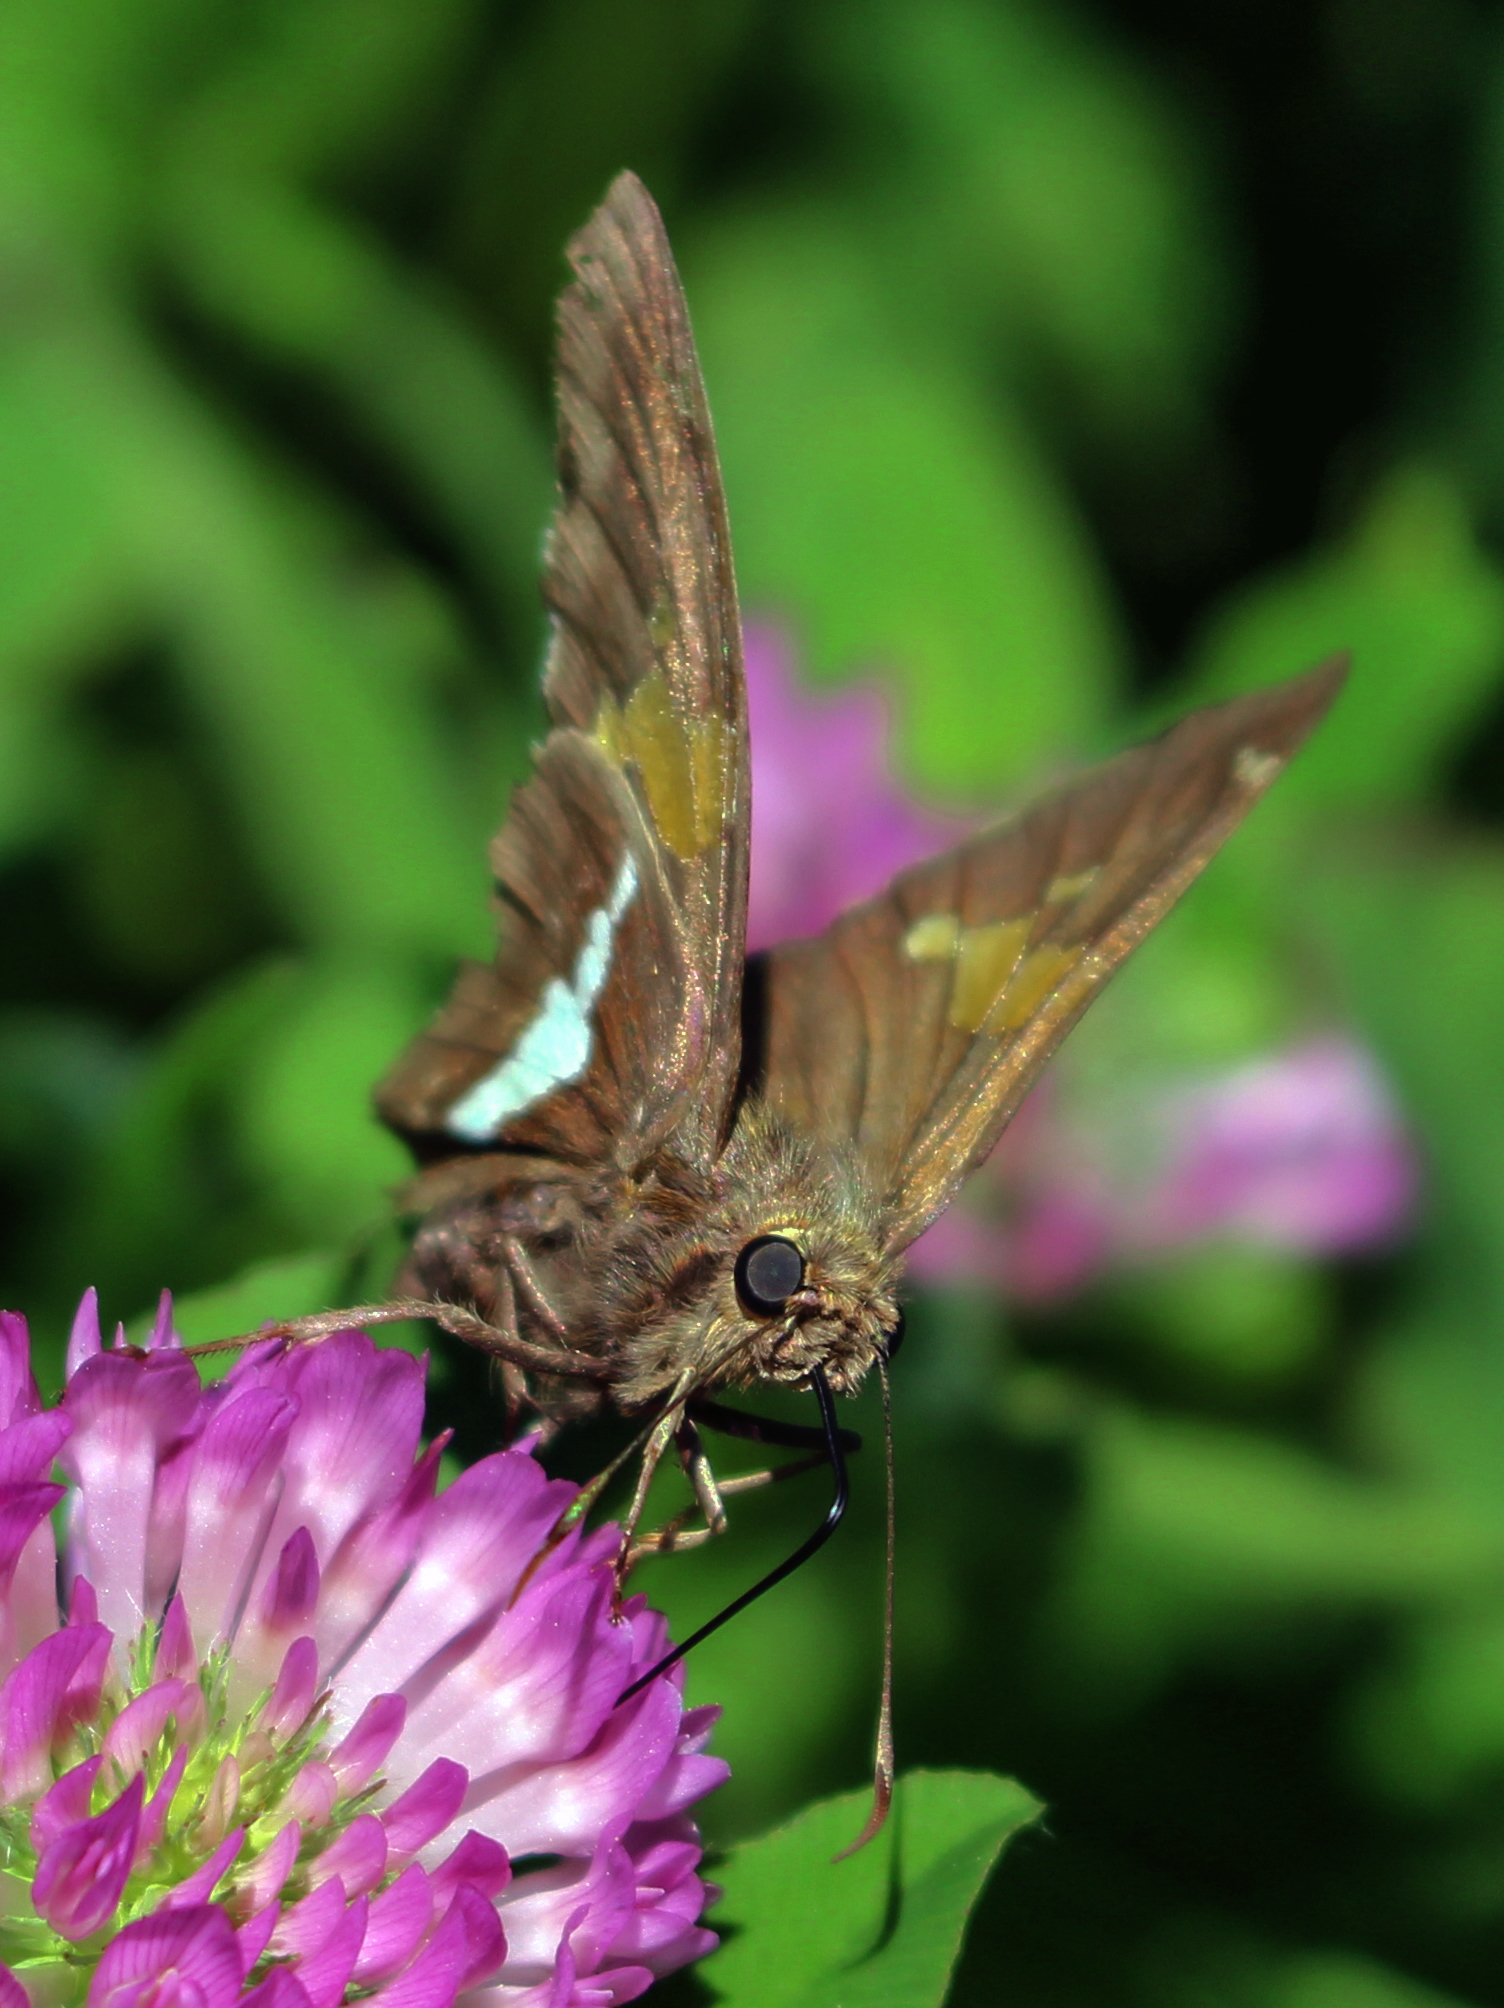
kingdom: Animalia
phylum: Arthropoda
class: Insecta
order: Lepidoptera
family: Hesperiidae
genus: Epargyreus
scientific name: Epargyreus clarus
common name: Silver-spotted skipper
